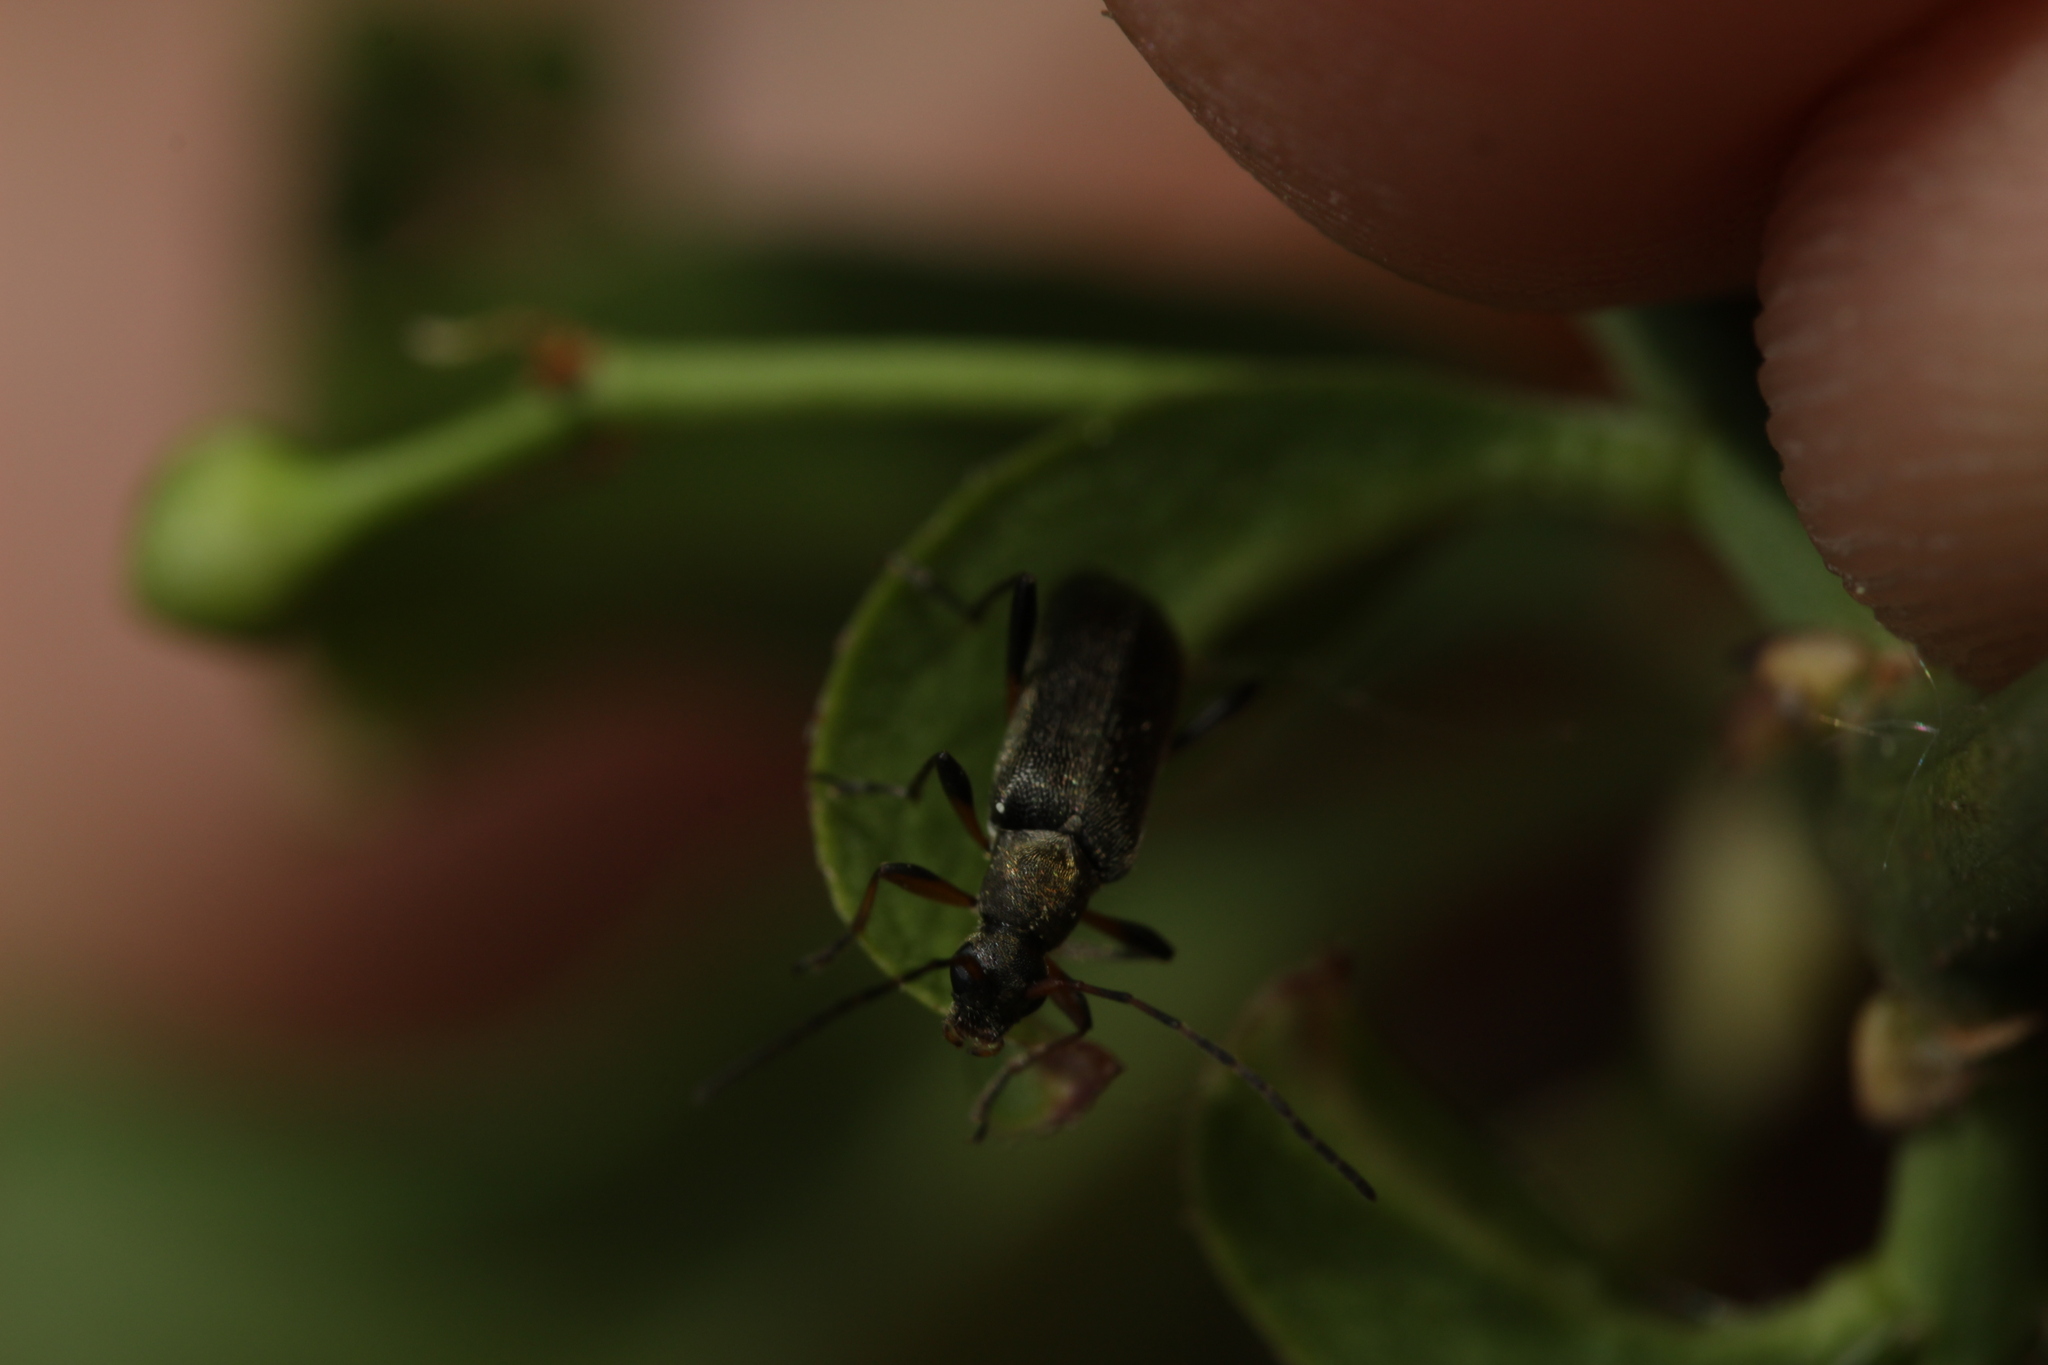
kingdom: Animalia
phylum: Arthropoda
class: Insecta
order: Coleoptera
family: Cerambycidae
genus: Grammoptera
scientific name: Grammoptera ruficornis
